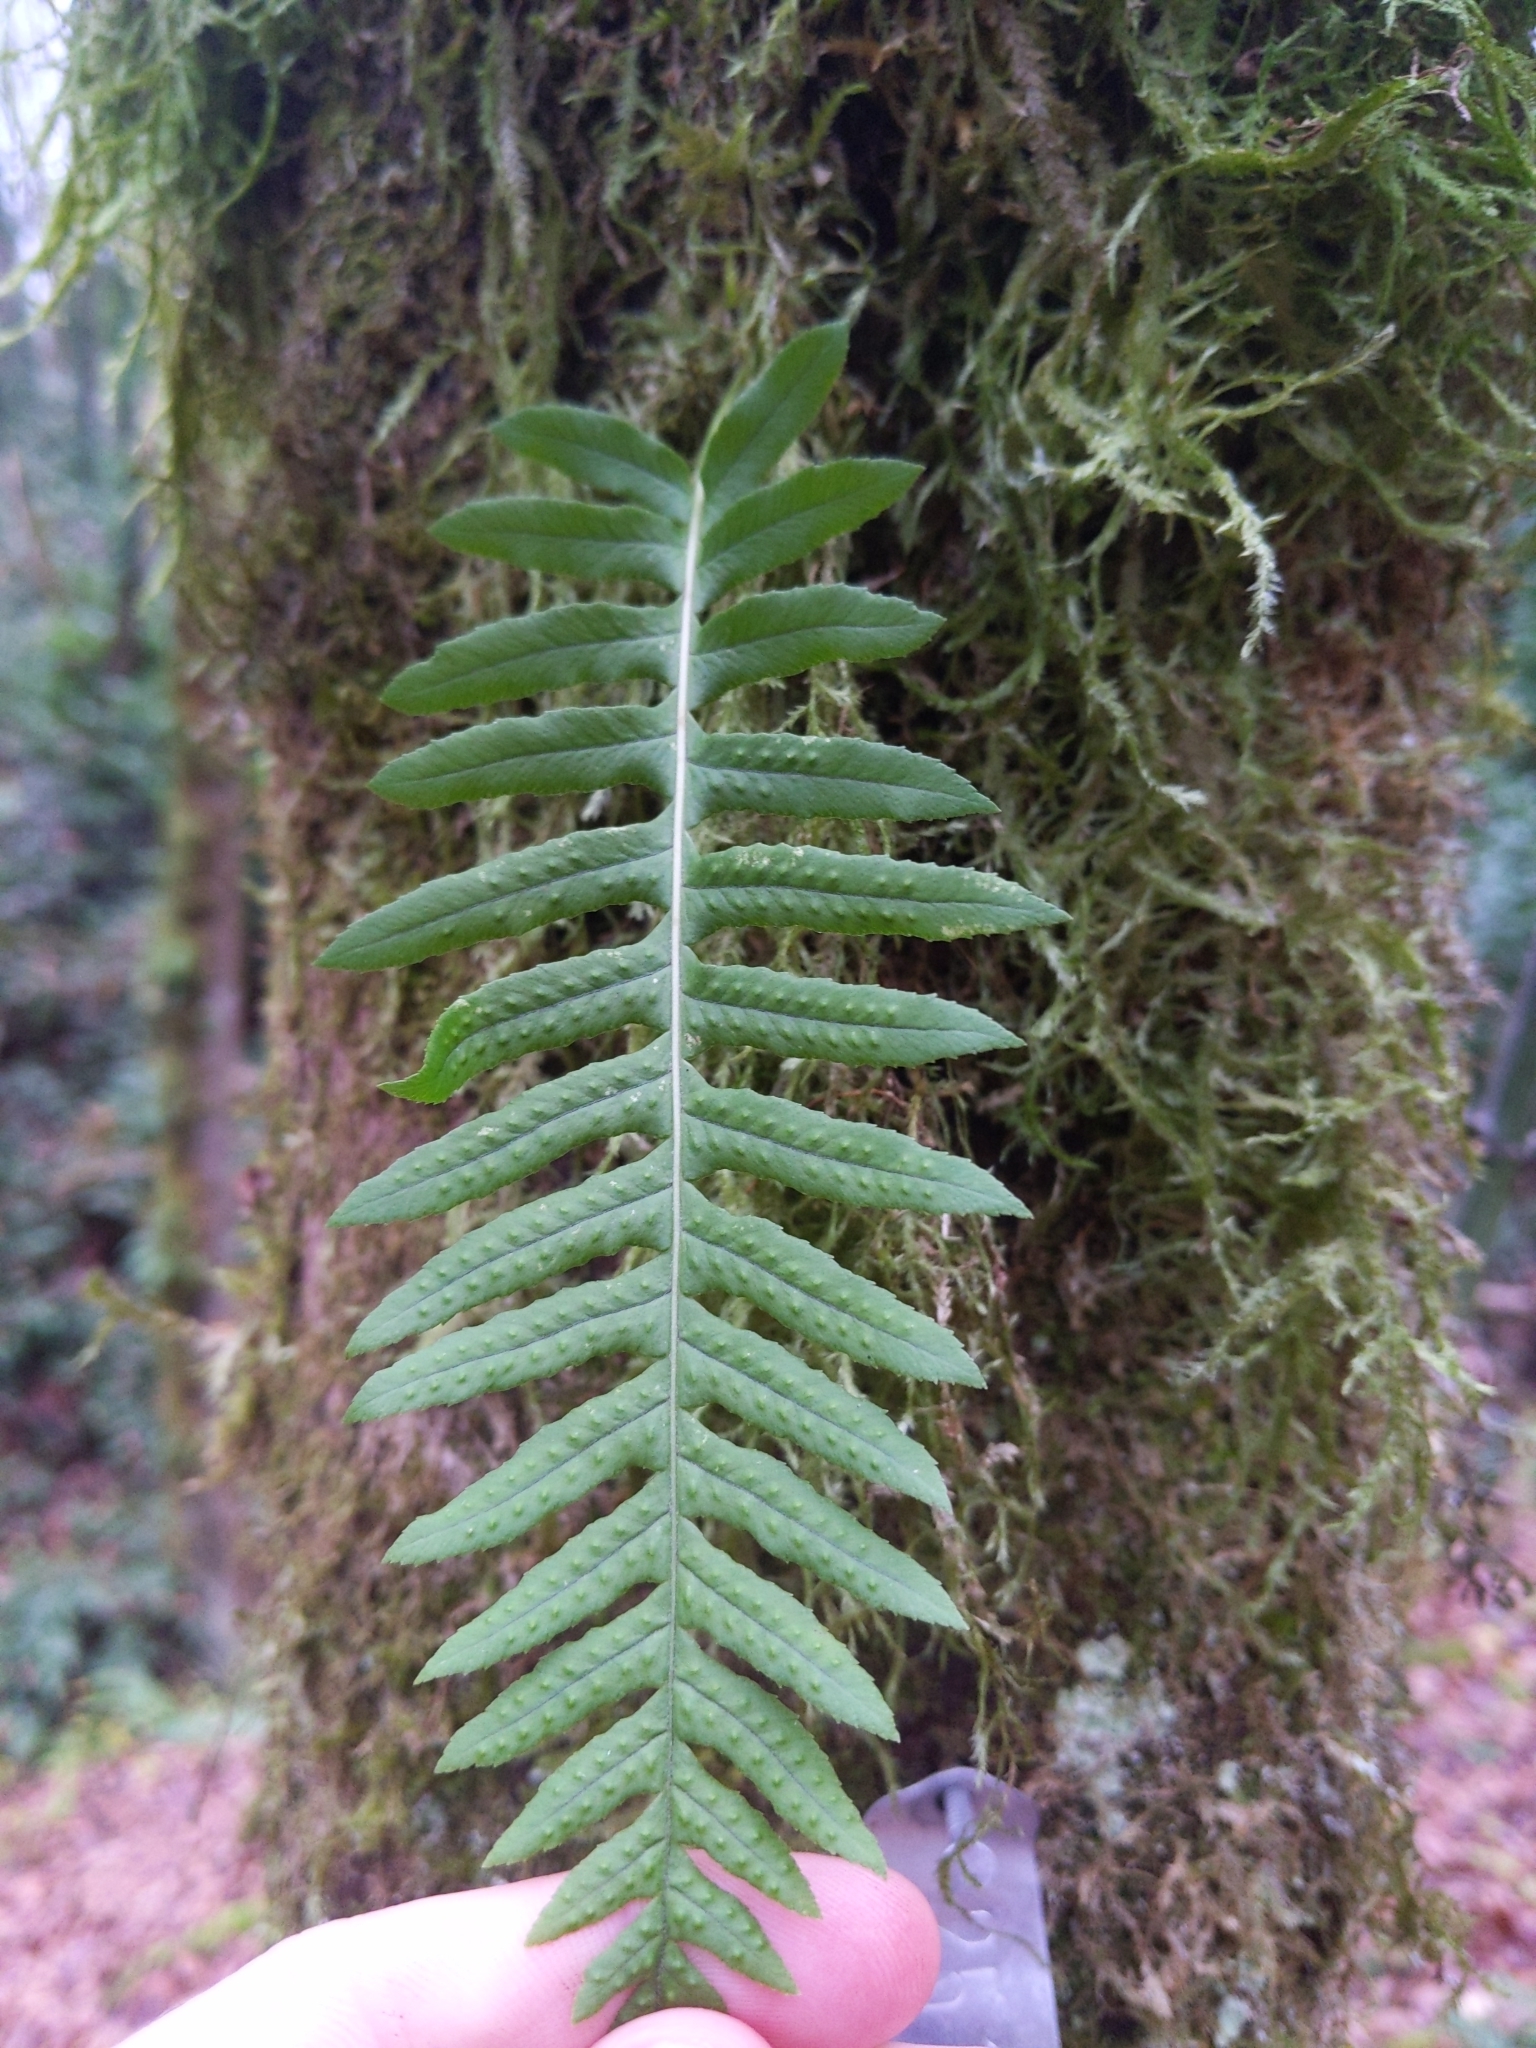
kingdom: Plantae
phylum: Tracheophyta
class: Polypodiopsida
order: Polypodiales
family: Polypodiaceae
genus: Polypodium
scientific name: Polypodium glycyrrhiza
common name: Licorice fern
